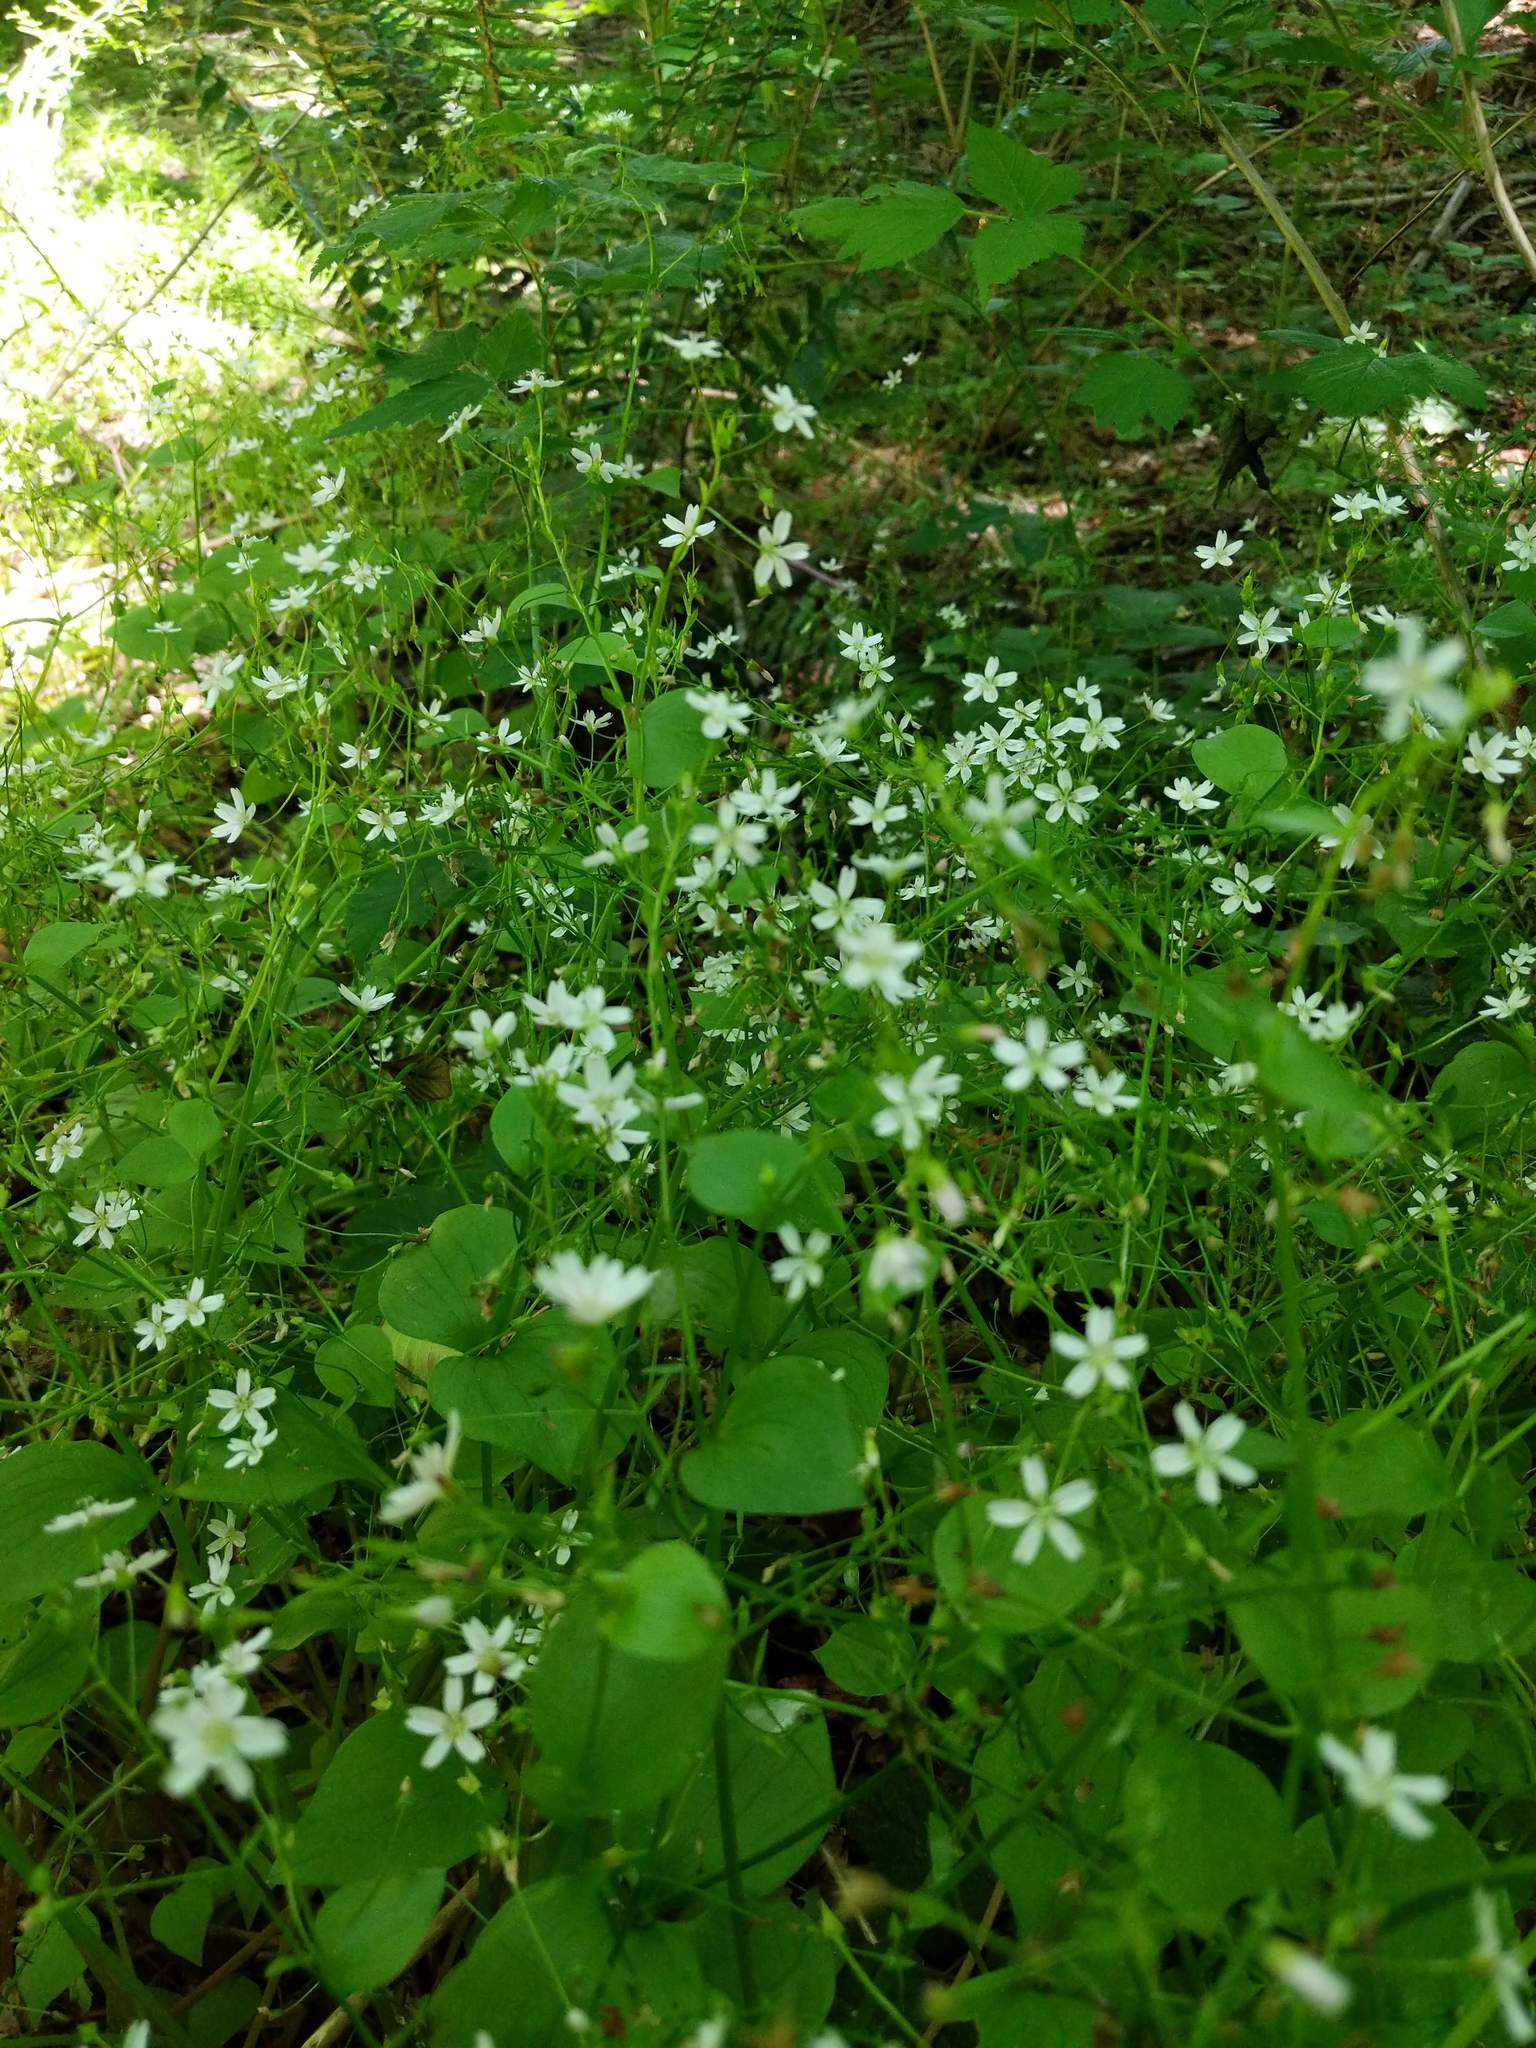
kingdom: Plantae
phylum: Tracheophyta
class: Magnoliopsida
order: Caryophyllales
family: Montiaceae
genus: Claytonia
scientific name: Claytonia sibirica
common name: Pink purslane
